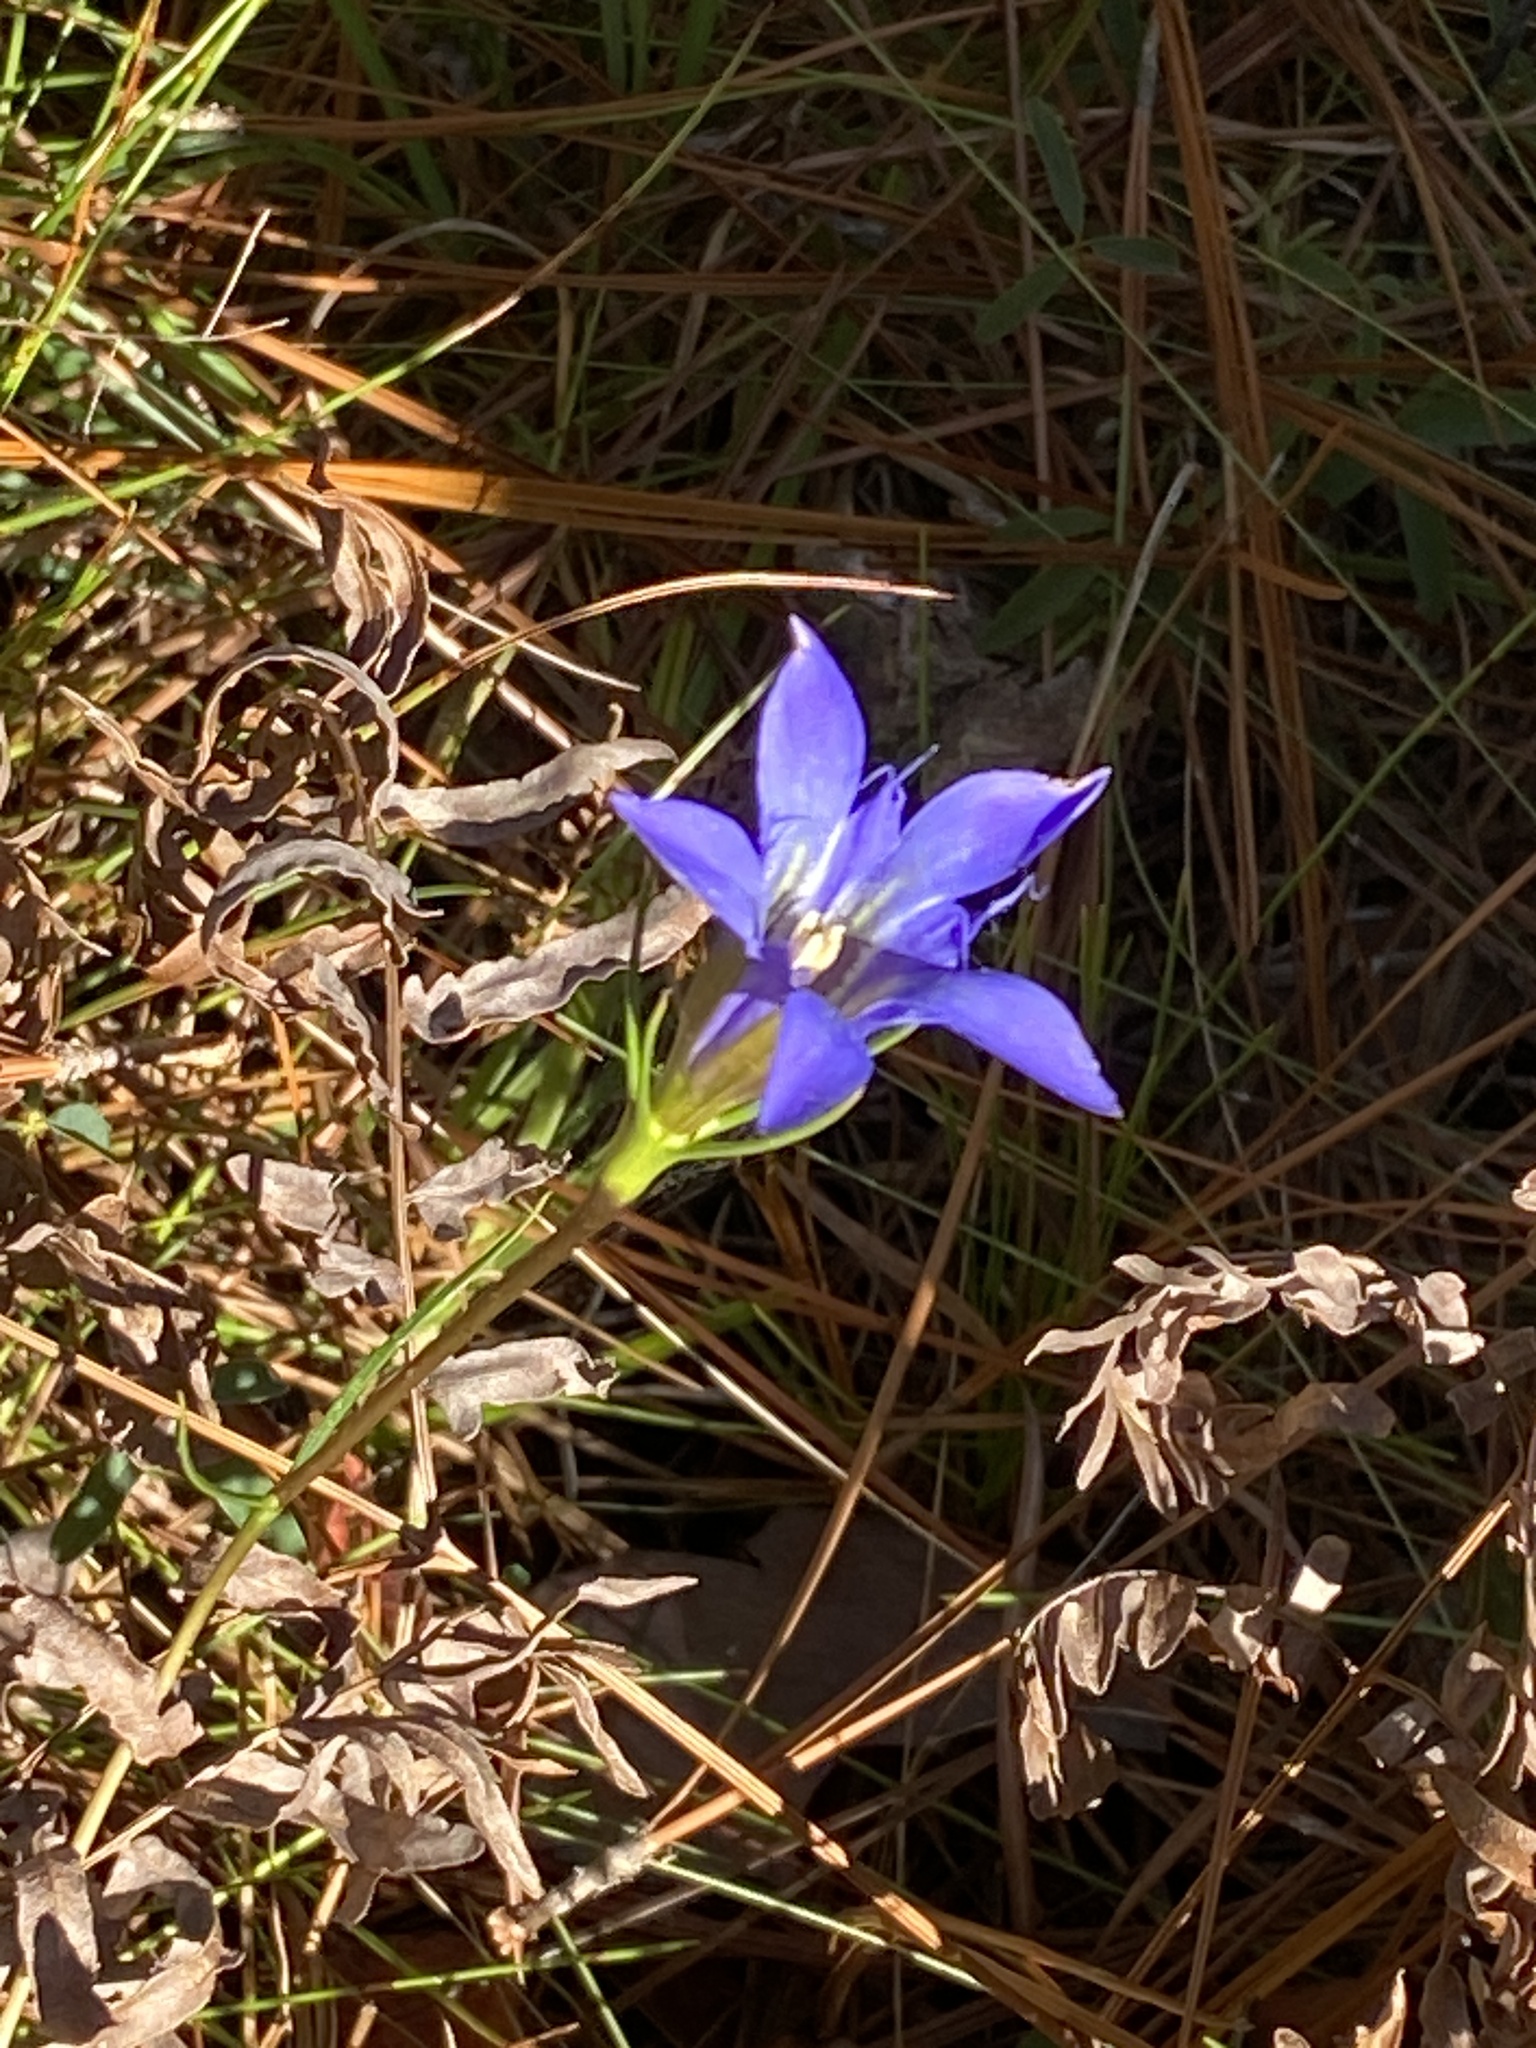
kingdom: Plantae
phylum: Tracheophyta
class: Magnoliopsida
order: Gentianales
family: Gentianaceae
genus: Gentiana
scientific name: Gentiana autumnalis
